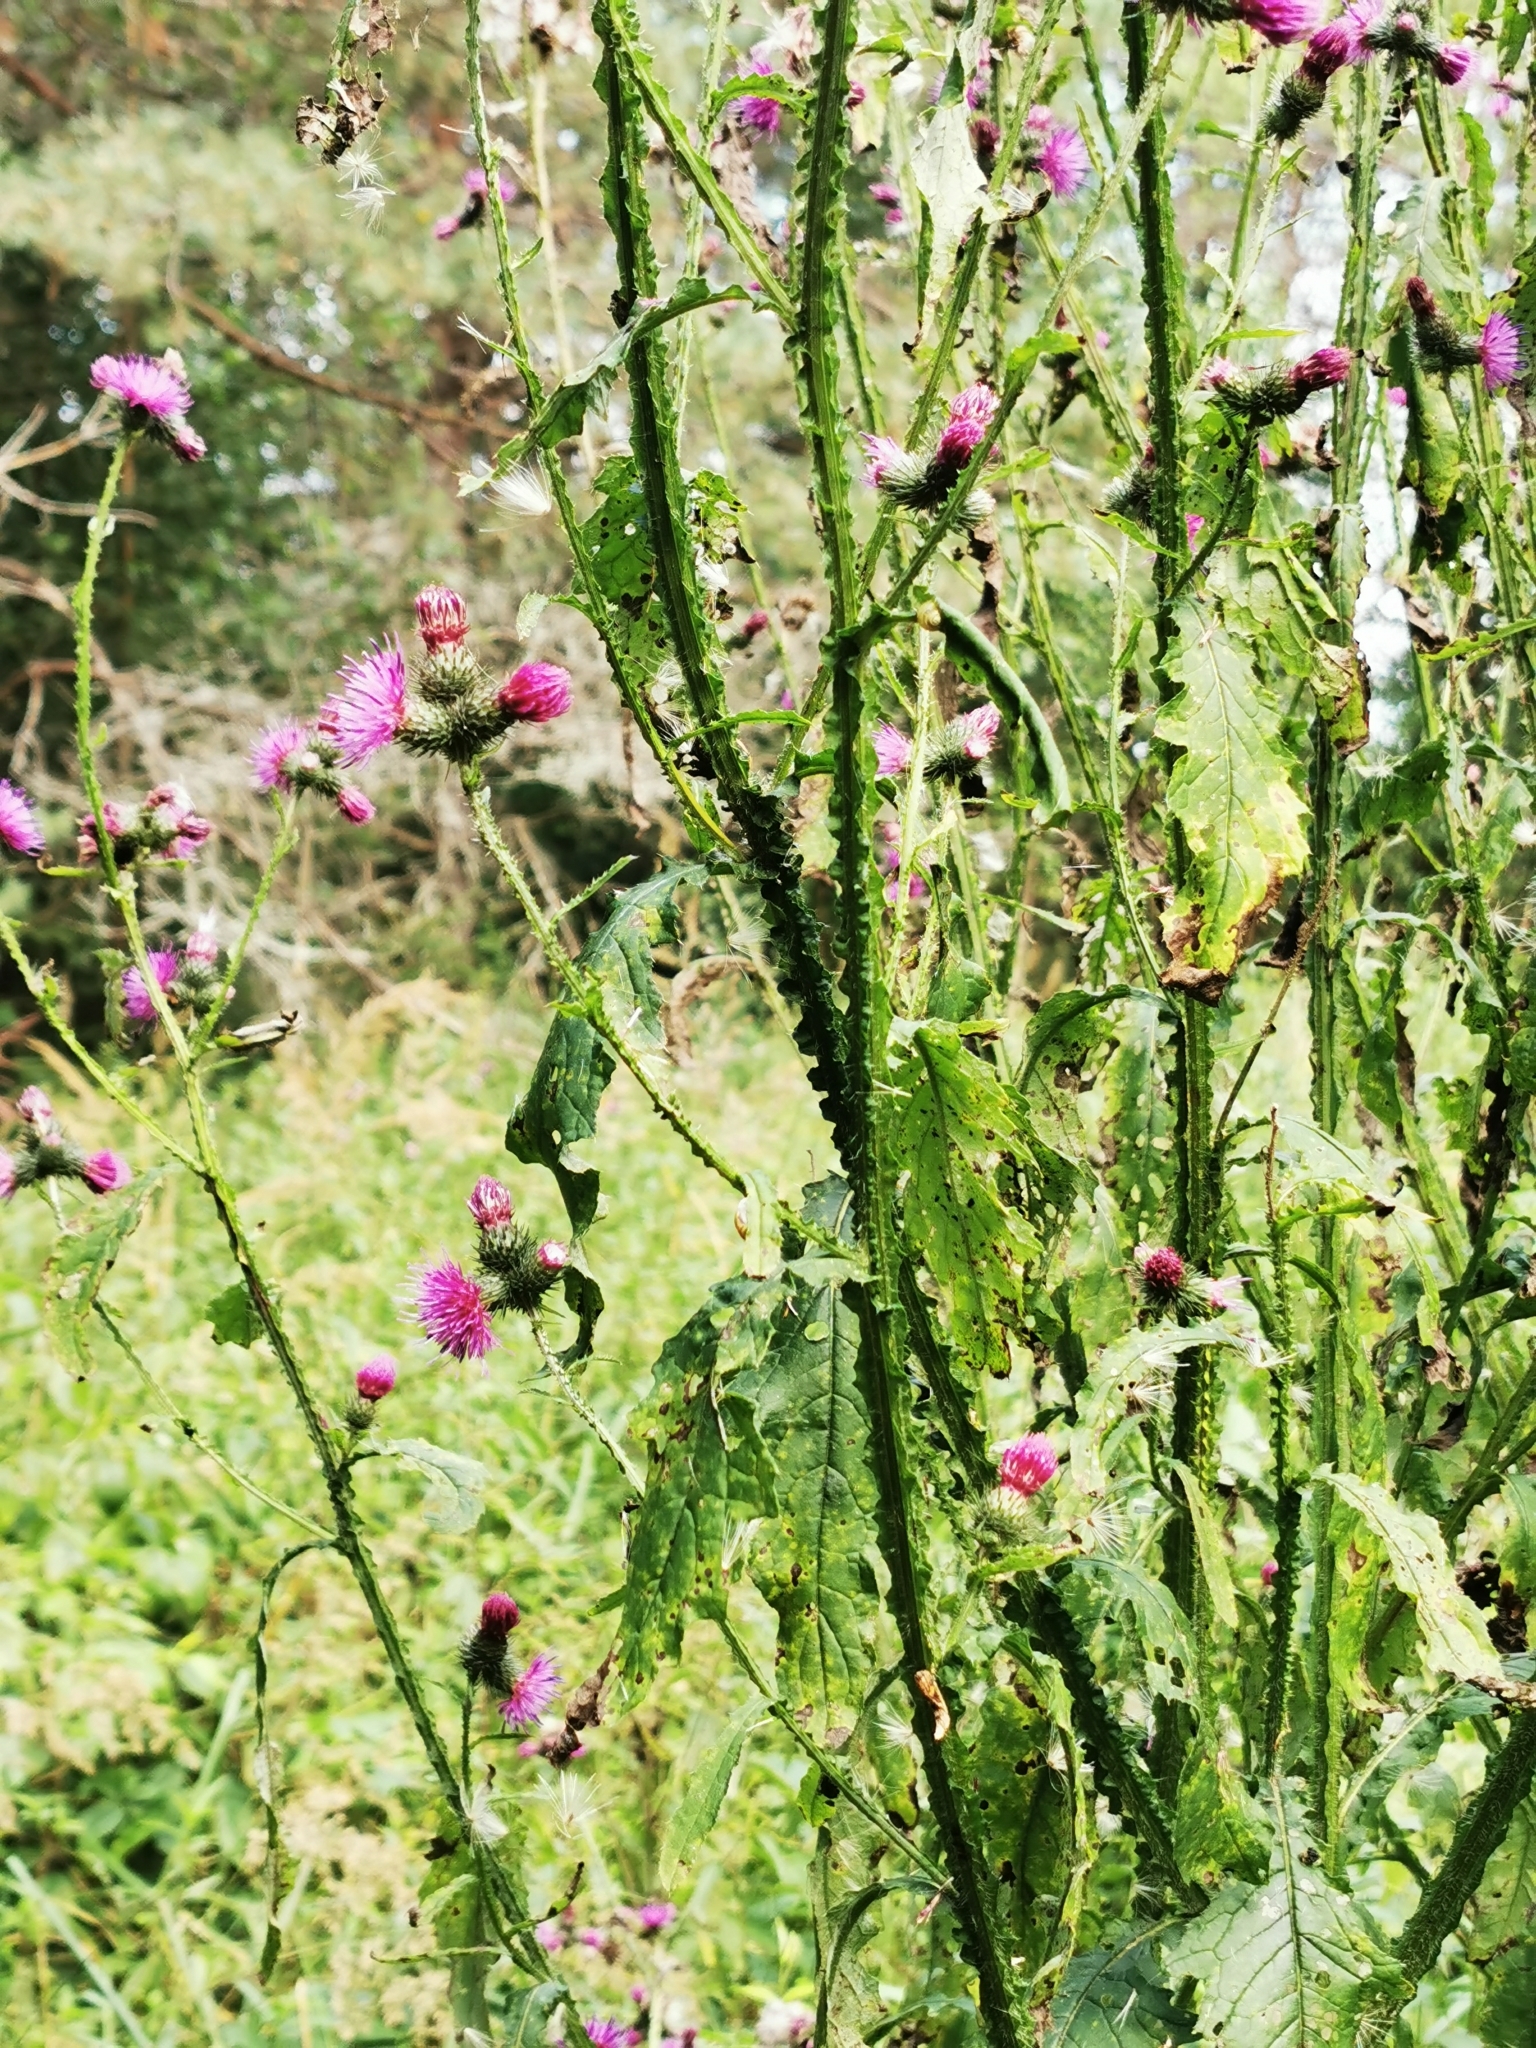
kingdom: Plantae
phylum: Tracheophyta
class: Magnoliopsida
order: Asterales
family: Asteraceae
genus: Carduus
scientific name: Carduus crispus
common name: Welted thistle
